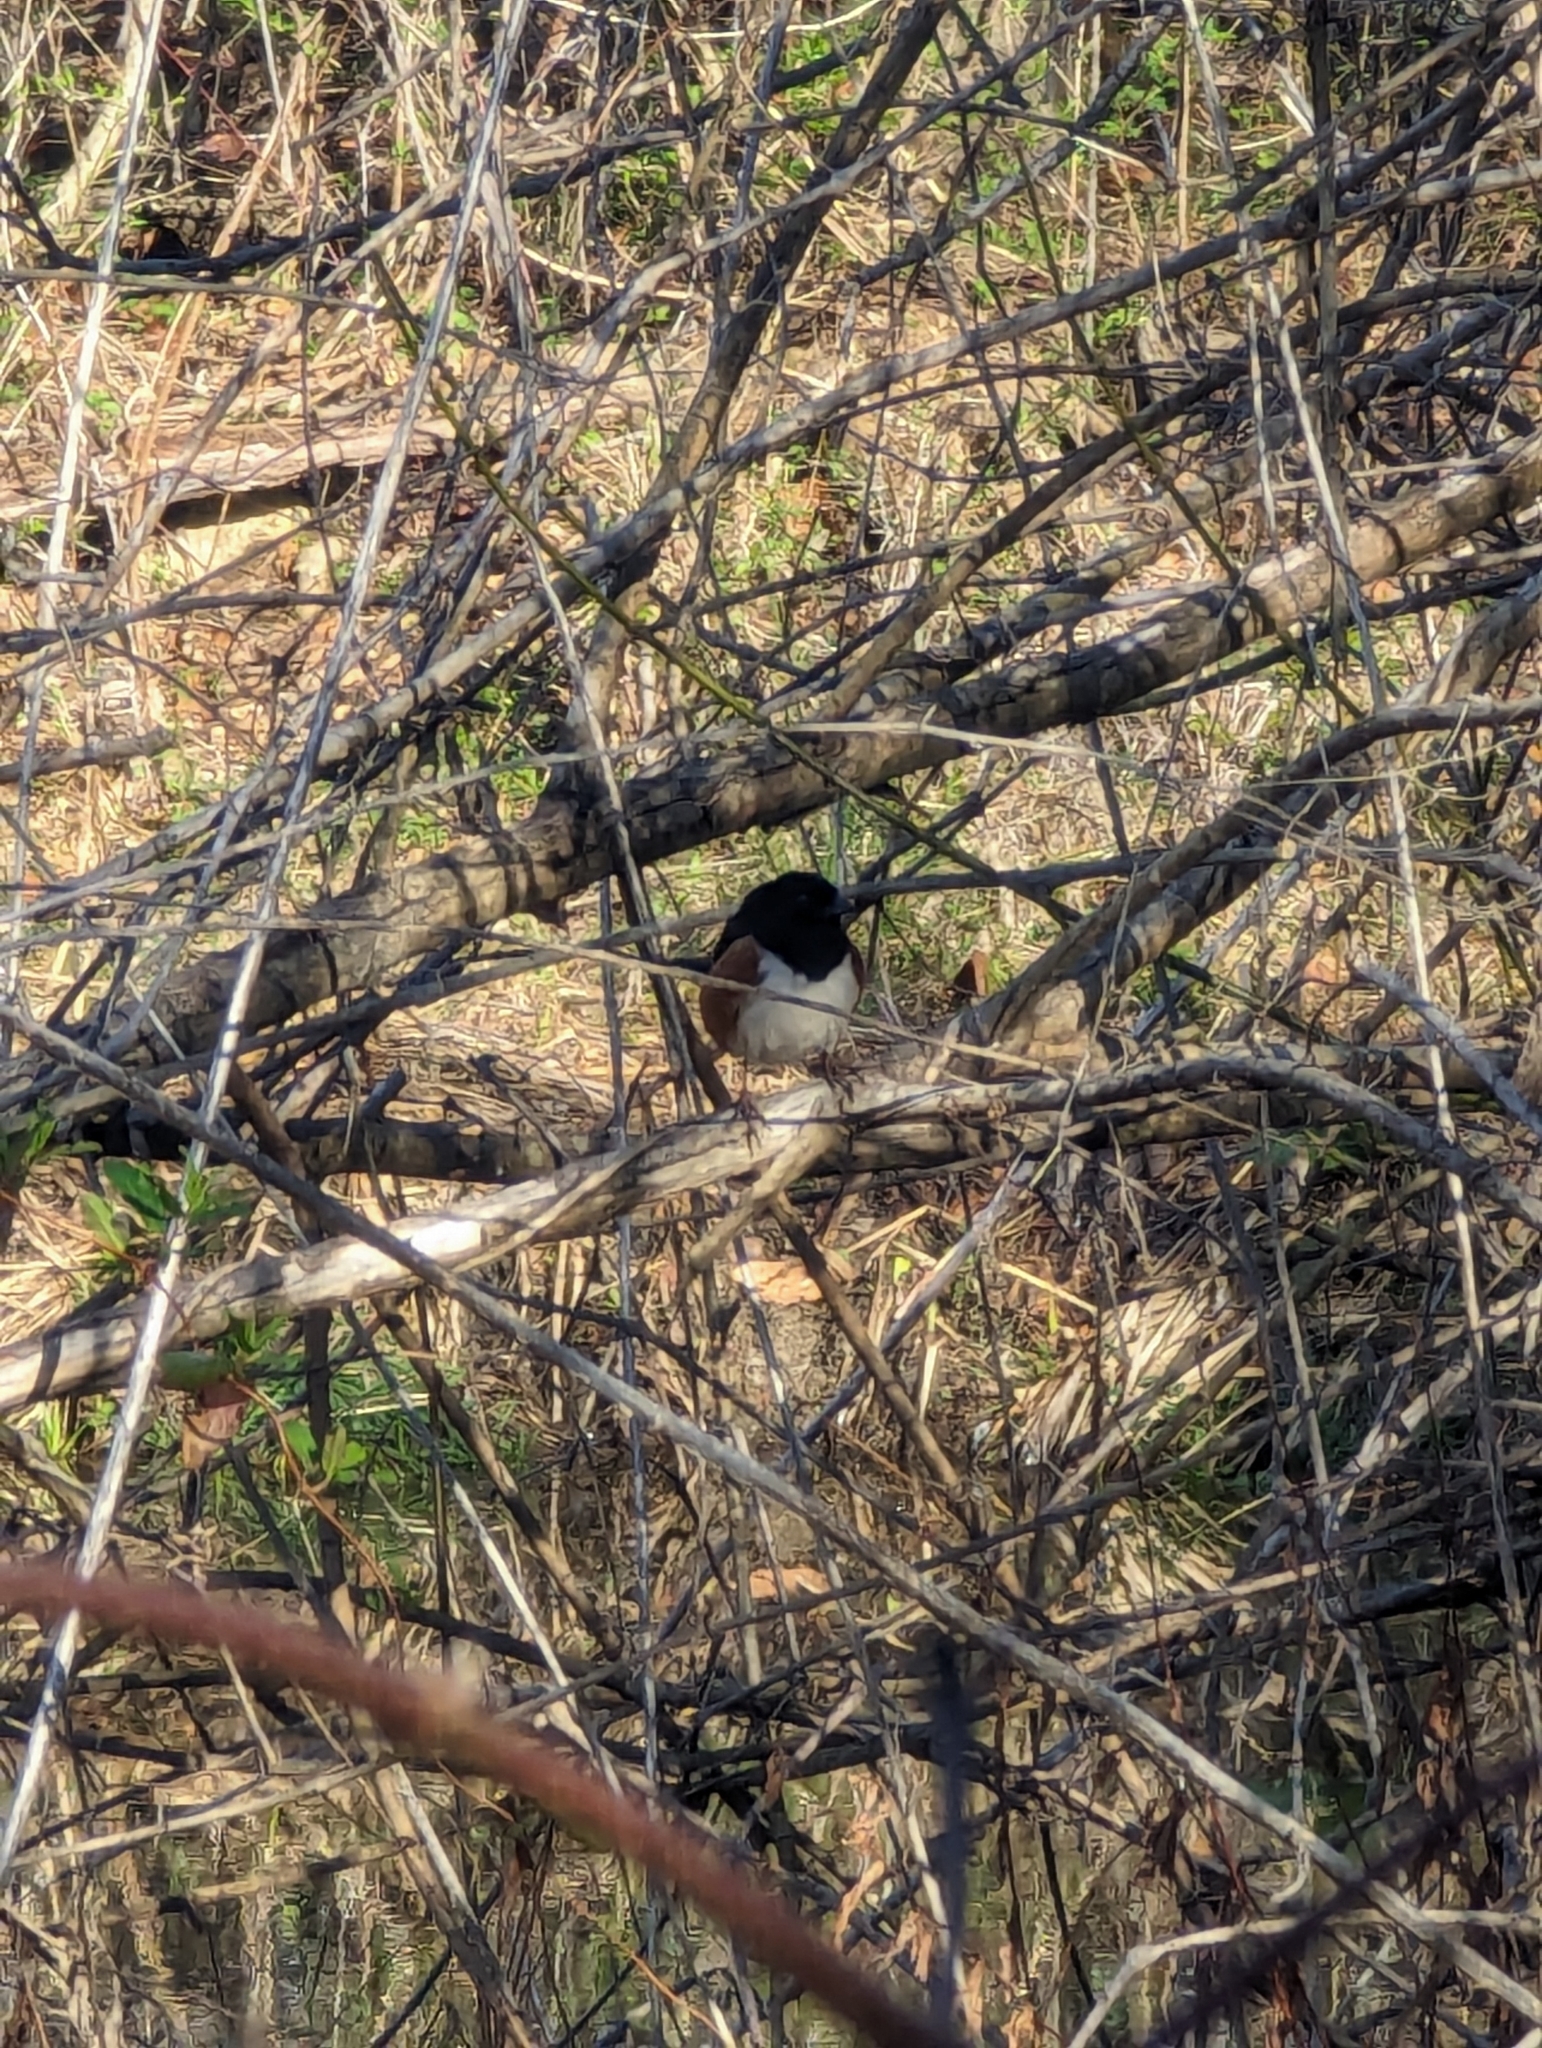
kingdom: Animalia
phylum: Chordata
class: Aves
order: Passeriformes
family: Passerellidae
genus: Pipilo
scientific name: Pipilo erythrophthalmus
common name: Eastern towhee
